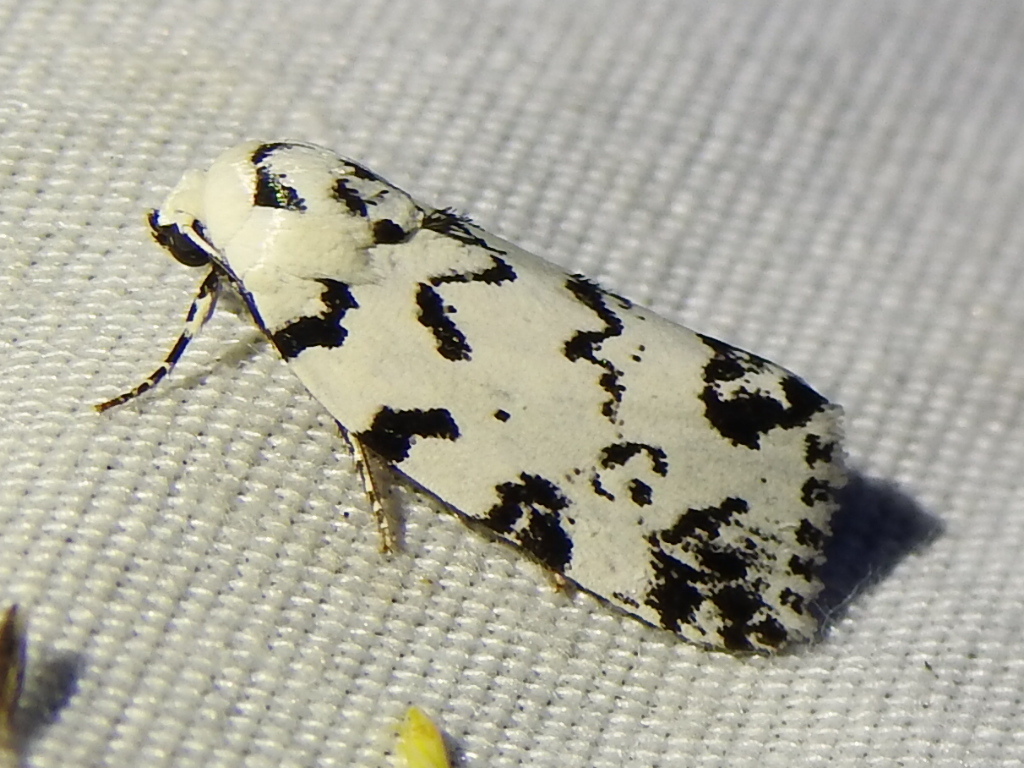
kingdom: Animalia
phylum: Arthropoda
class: Insecta
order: Lepidoptera
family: Noctuidae
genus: Polygrammate
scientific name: Polygrammate hebraeicum
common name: Hebrew moth
